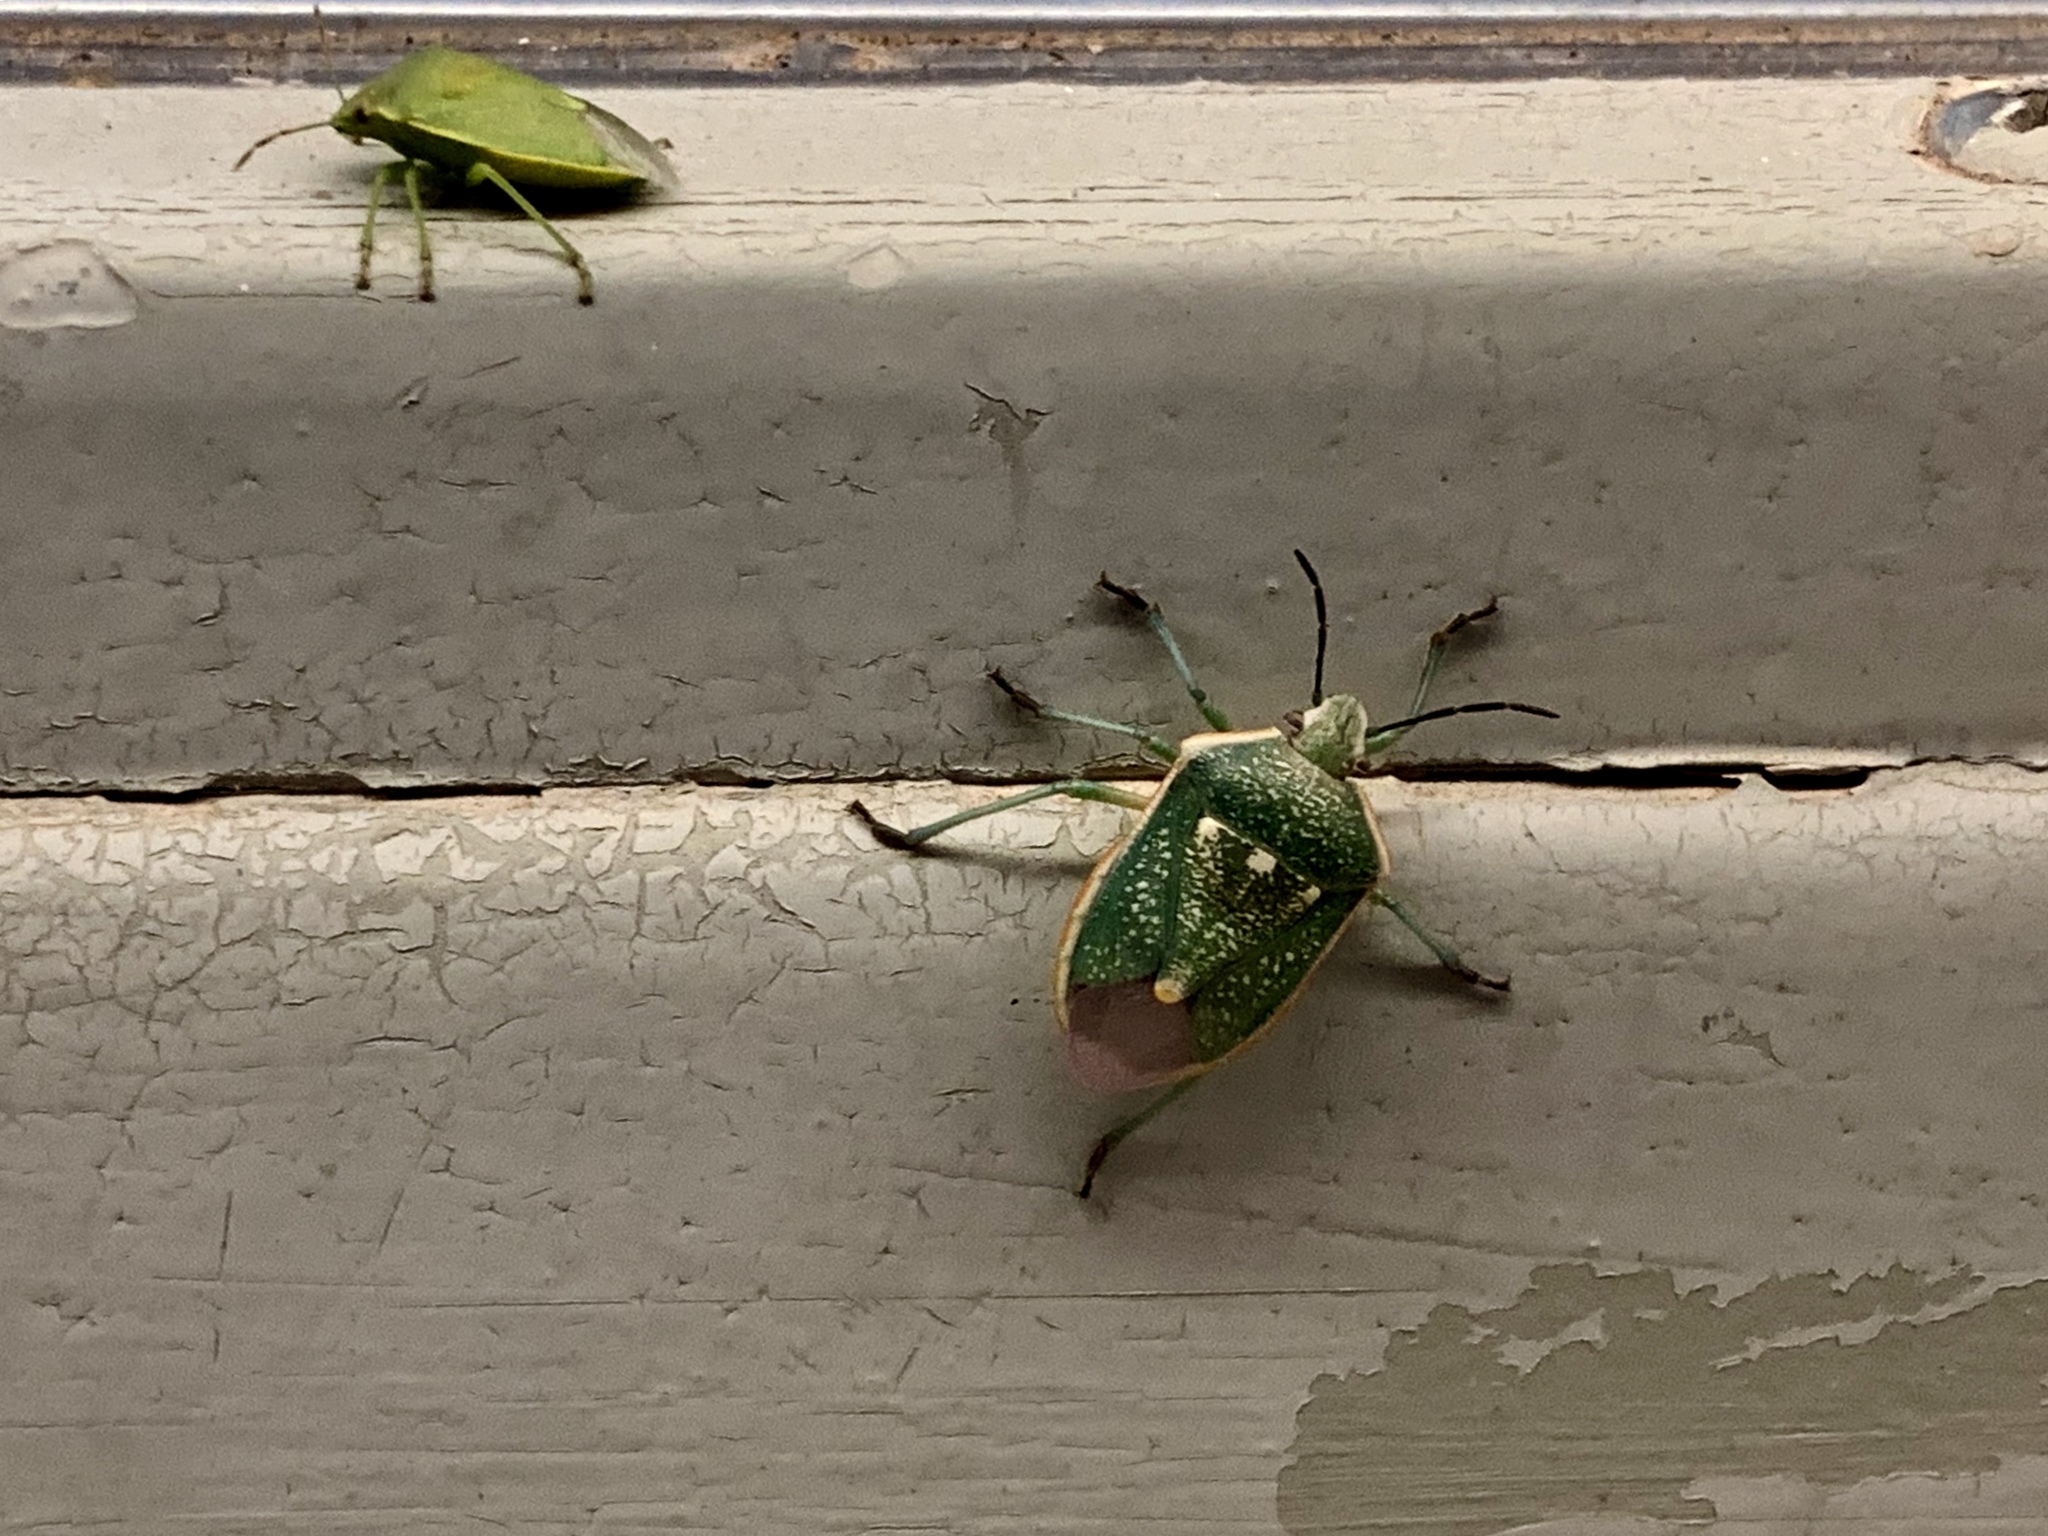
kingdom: Animalia
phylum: Arthropoda
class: Insecta
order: Hemiptera
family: Pentatomidae
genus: Chlorochroa
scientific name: Chlorochroa sayi
